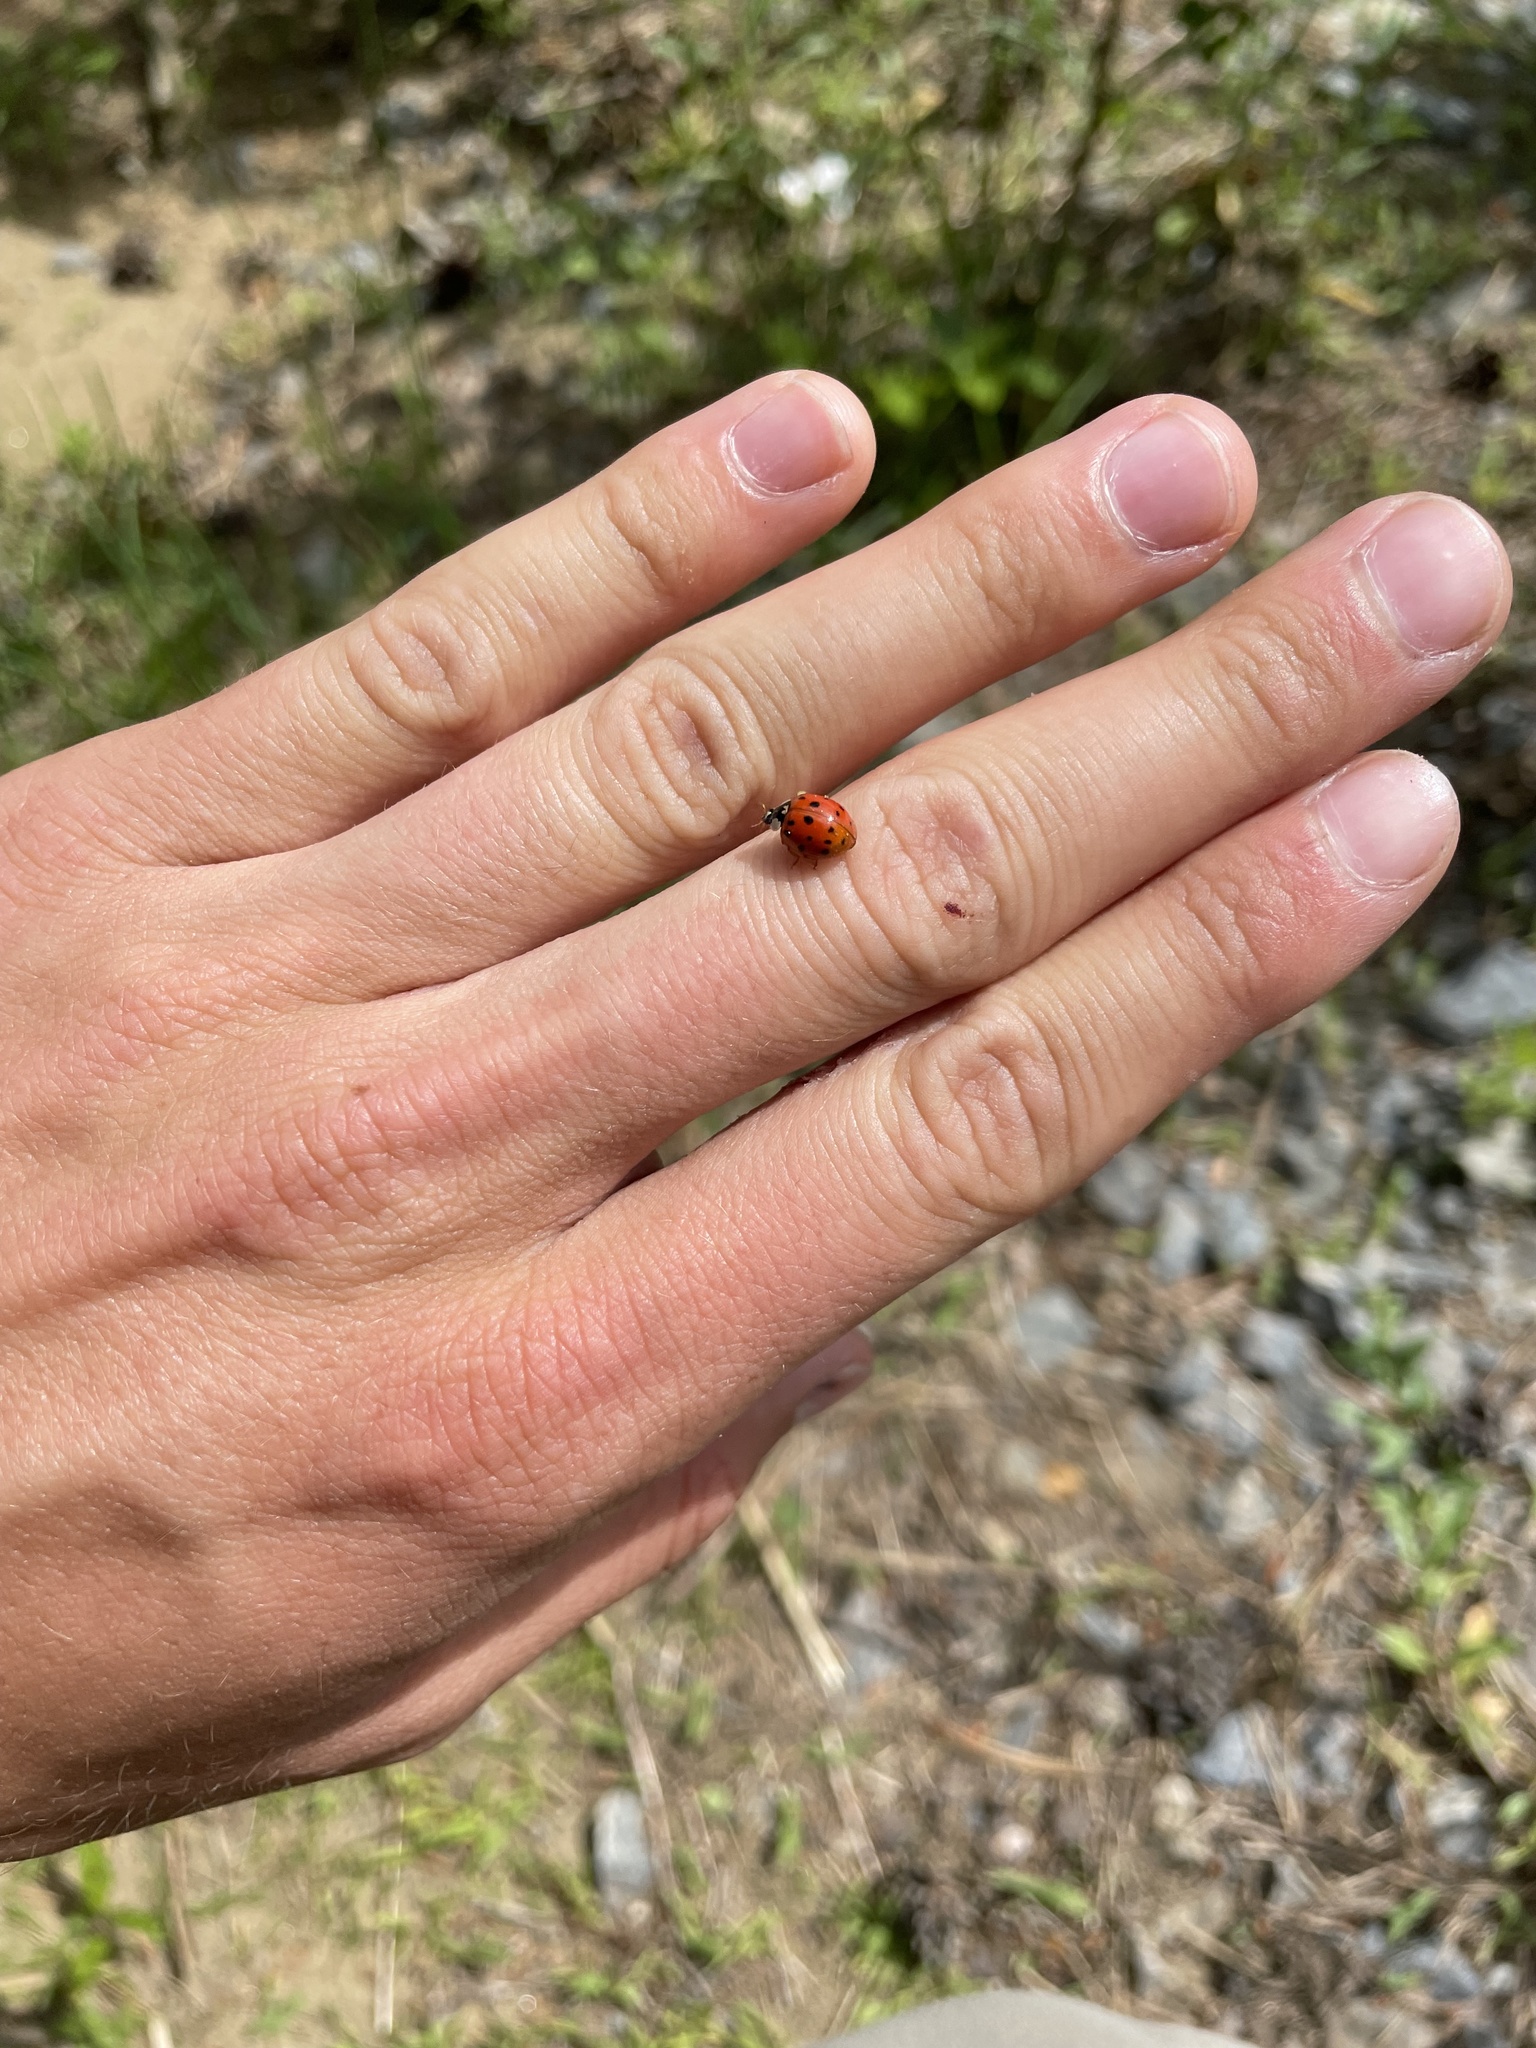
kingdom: Animalia
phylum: Arthropoda
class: Insecta
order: Coleoptera
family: Coccinellidae
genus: Harmonia
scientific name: Harmonia axyridis
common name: Harlequin ladybird
